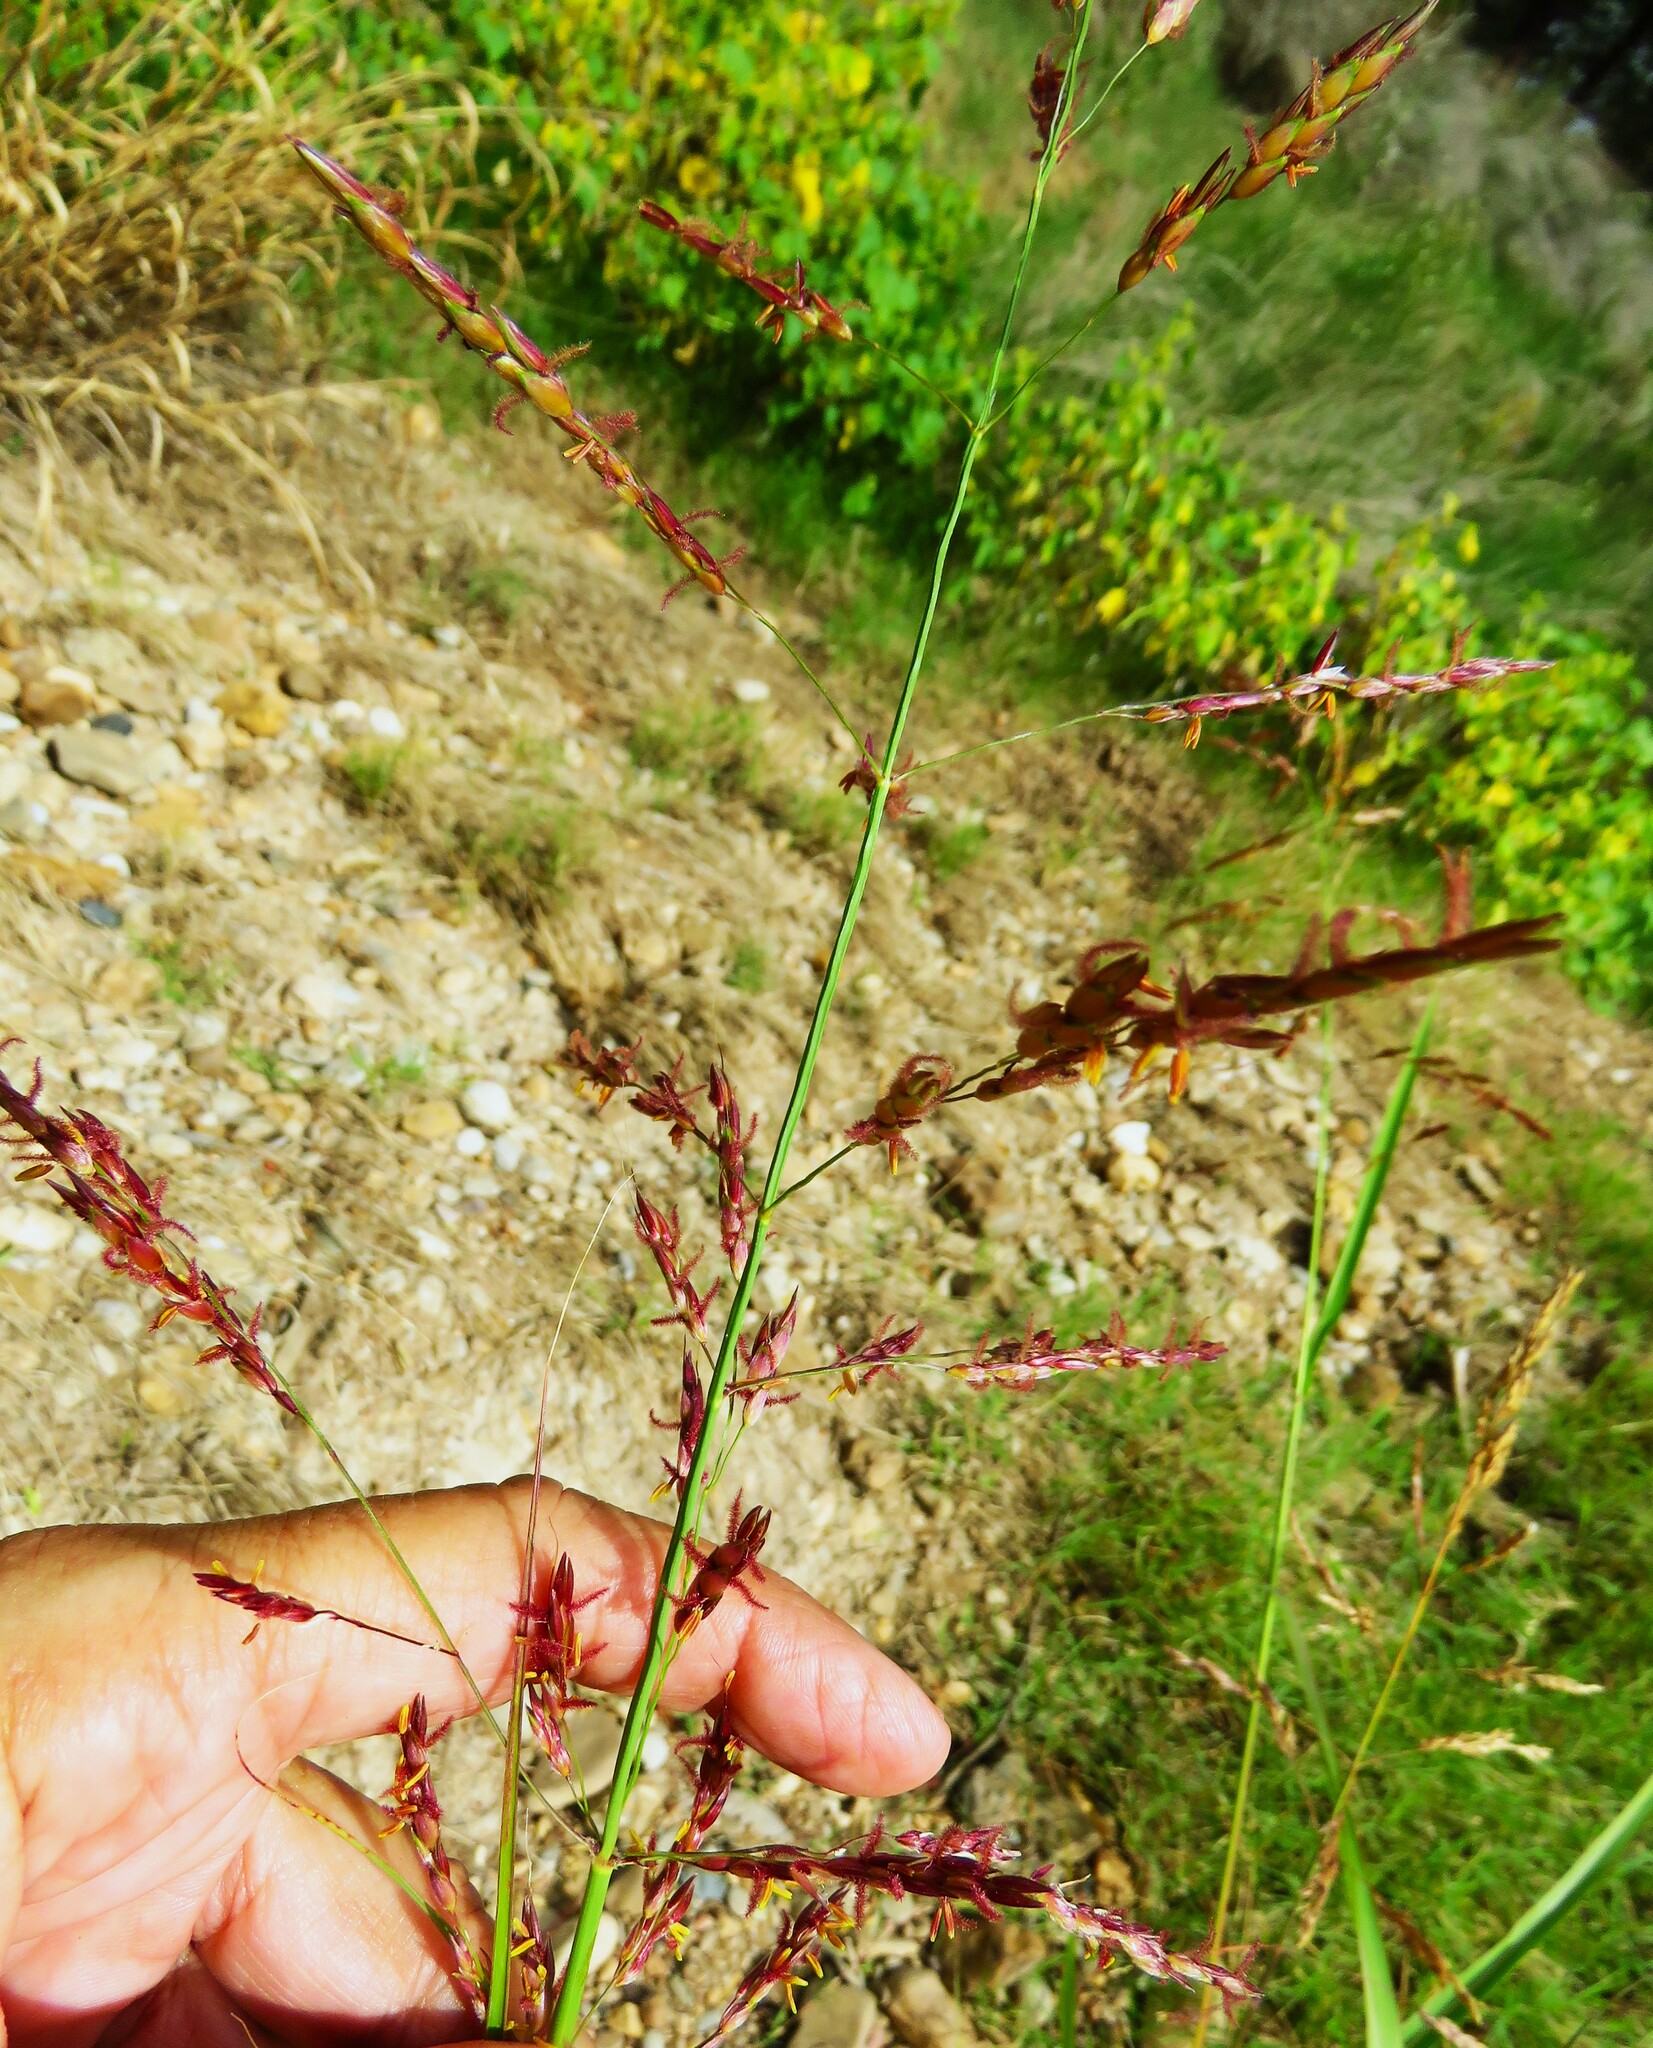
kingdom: Plantae
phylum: Tracheophyta
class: Liliopsida
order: Poales
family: Poaceae
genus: Sorghum
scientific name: Sorghum halepense
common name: Johnson-grass
